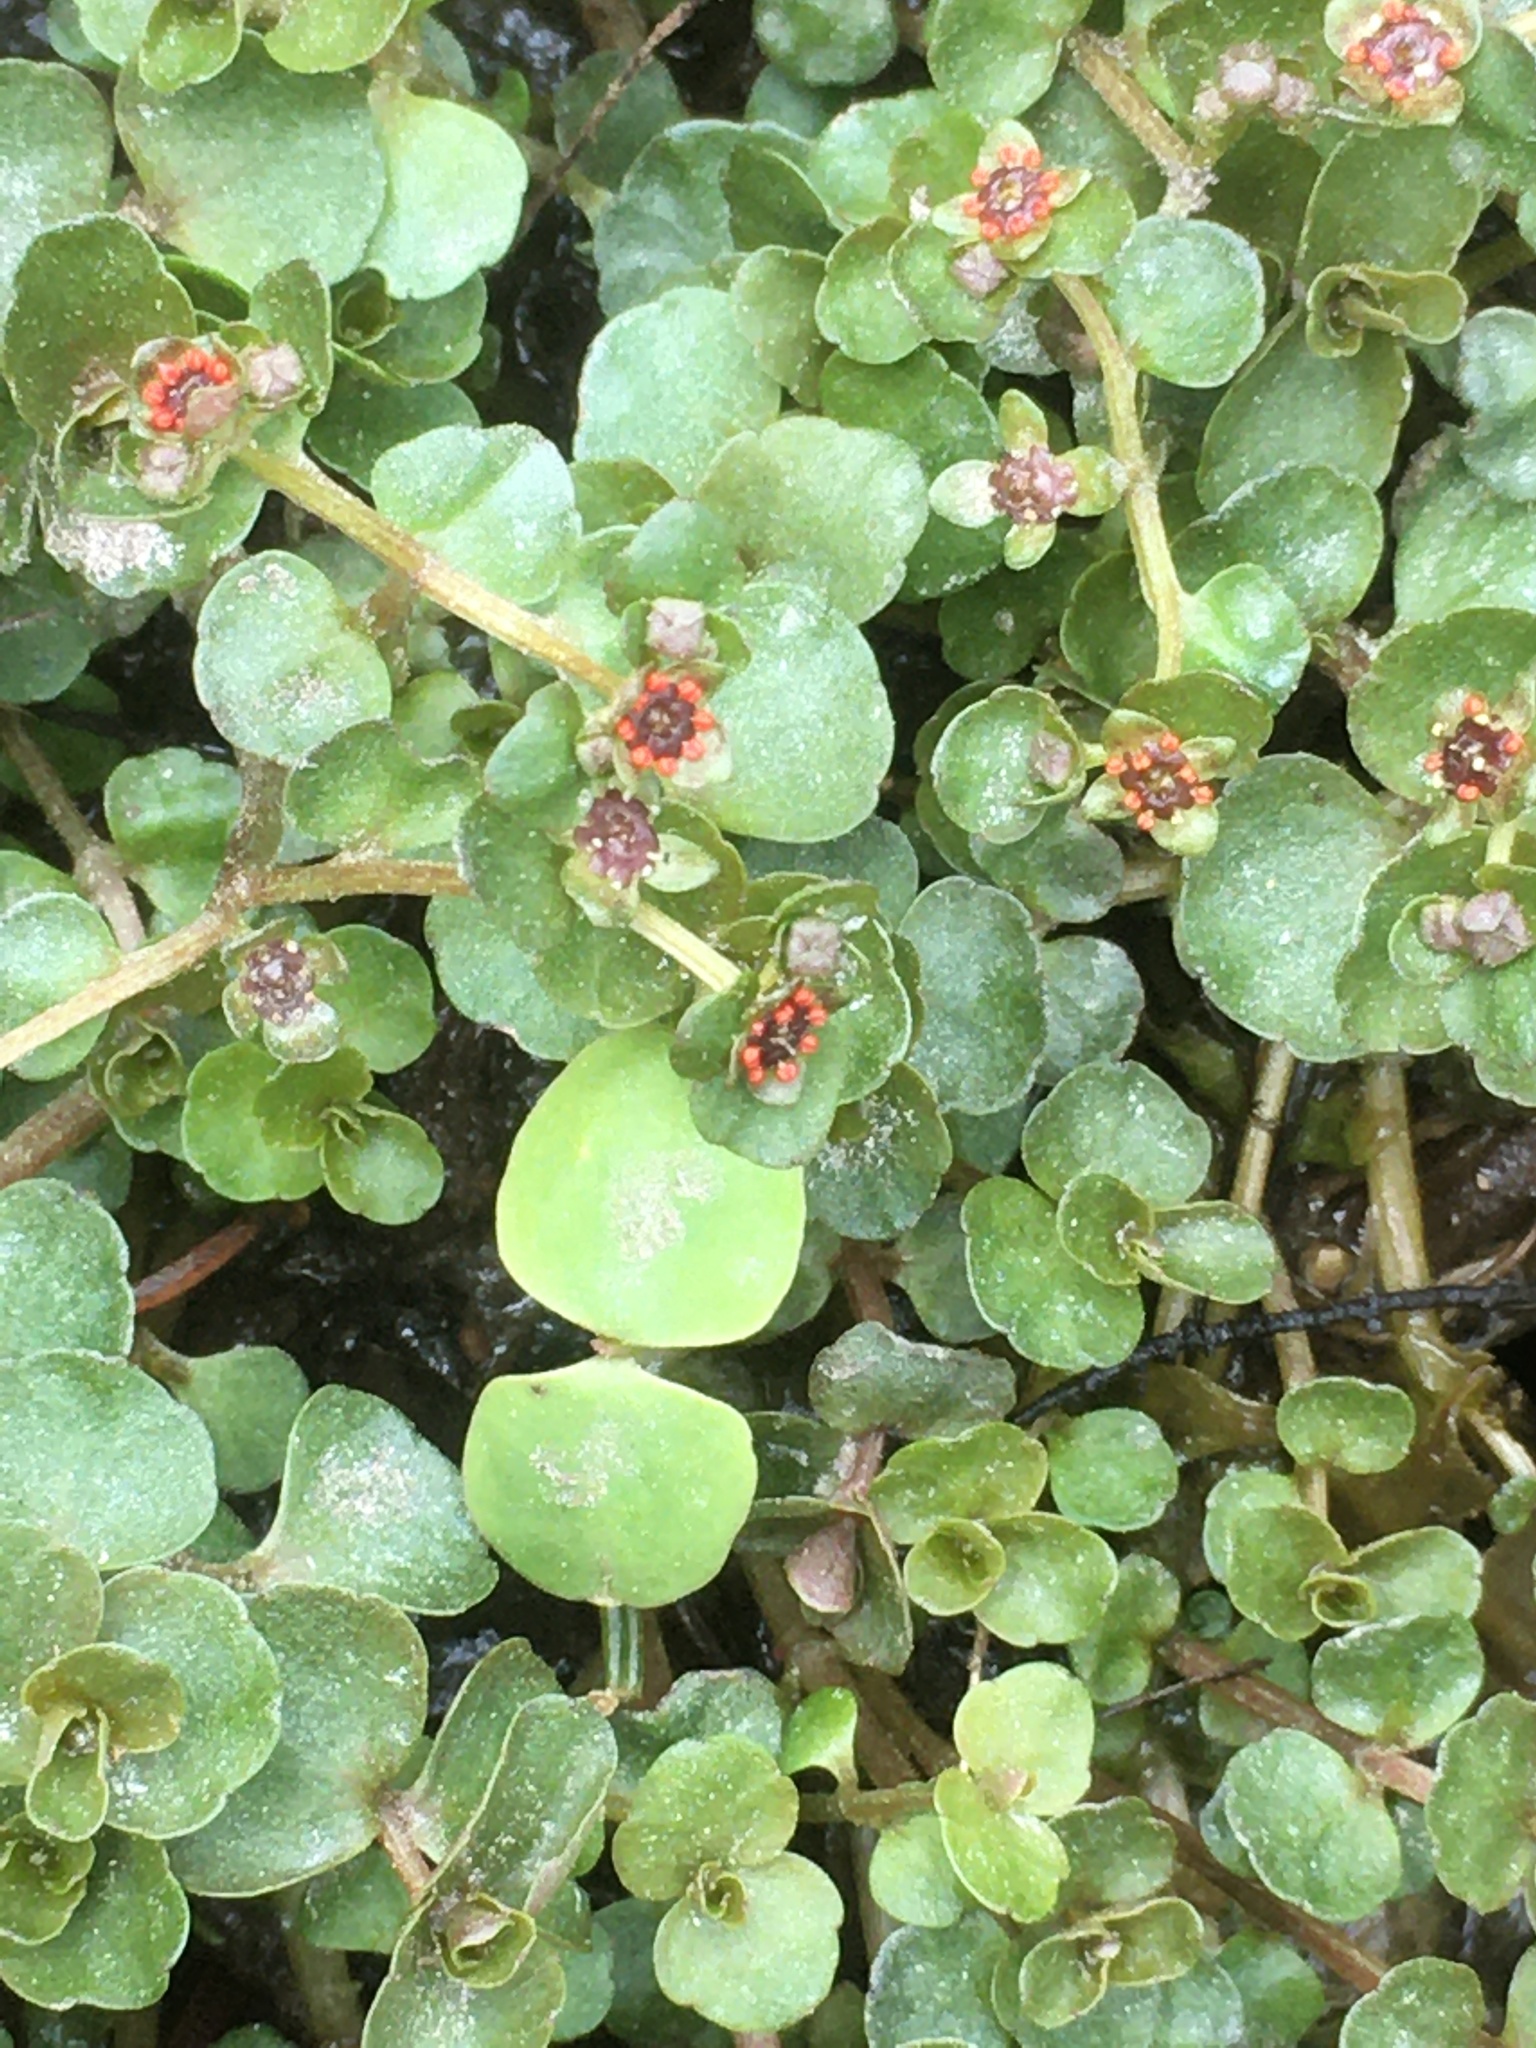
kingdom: Plantae
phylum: Tracheophyta
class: Magnoliopsida
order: Saxifragales
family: Saxifragaceae
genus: Chrysosplenium
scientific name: Chrysosplenium americanum
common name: American golden-saxifrage
